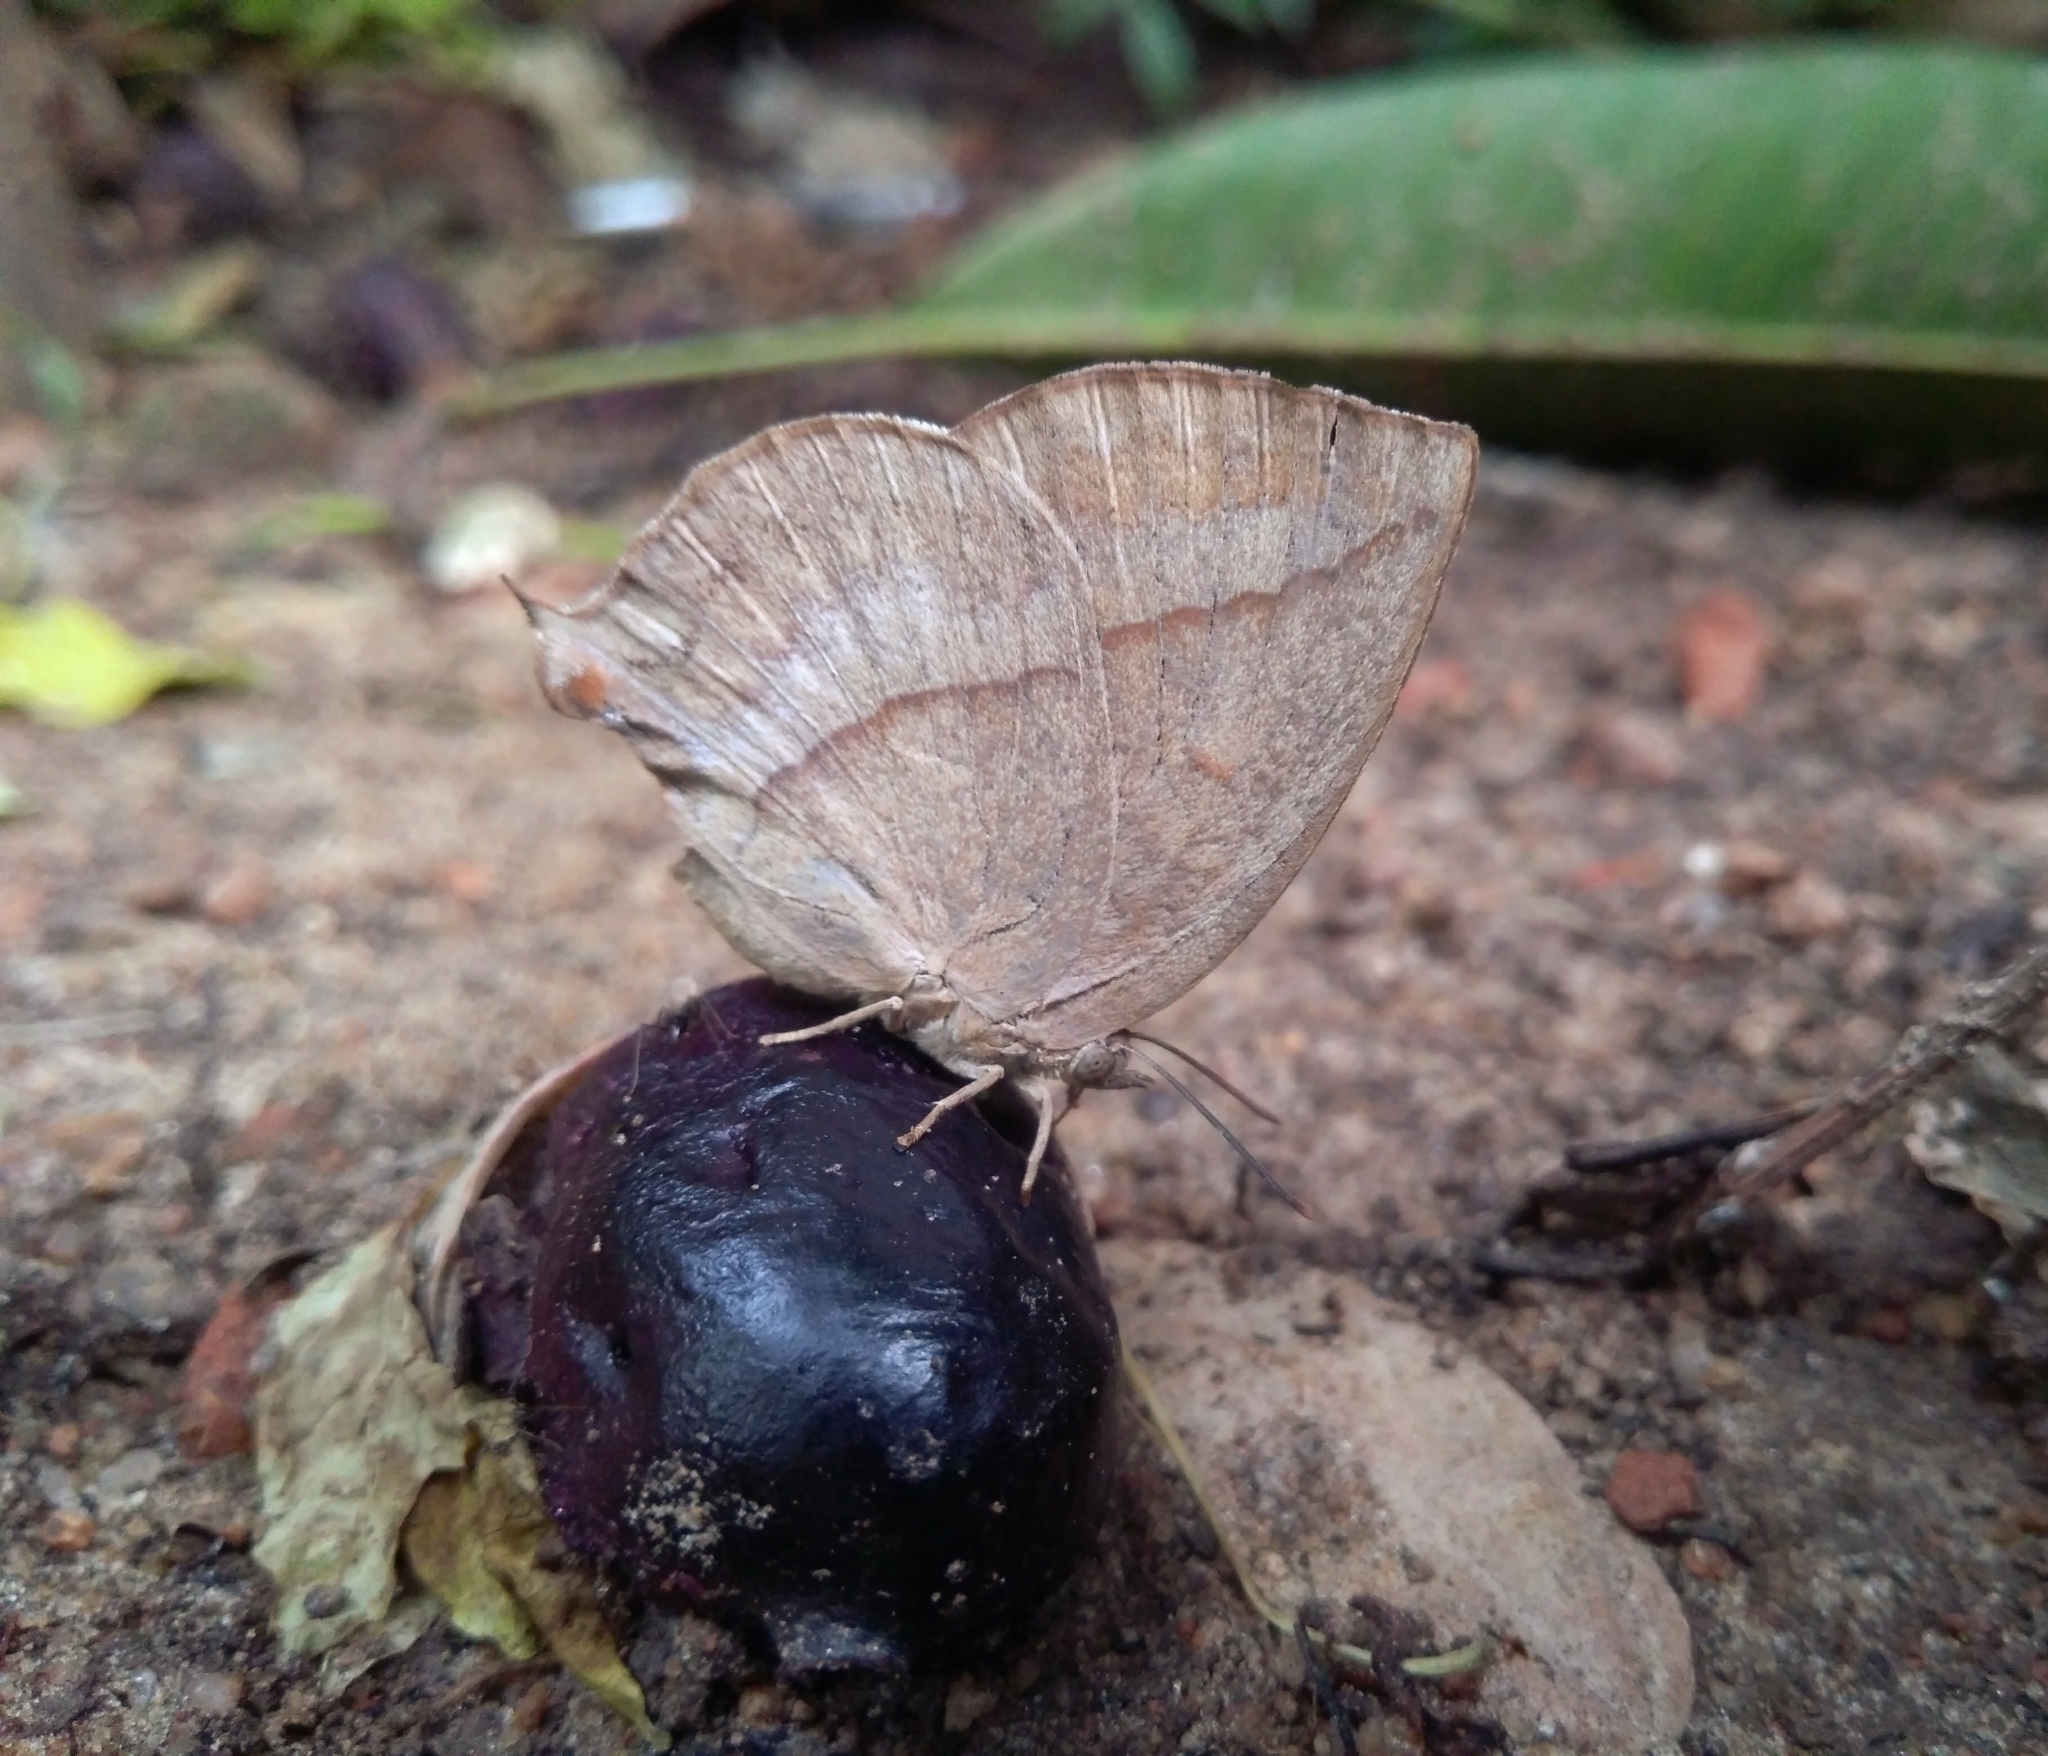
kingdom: Animalia
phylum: Arthropoda
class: Insecta
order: Lepidoptera
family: Lycaenidae
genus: Amblypodia
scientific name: Amblypodia anita
